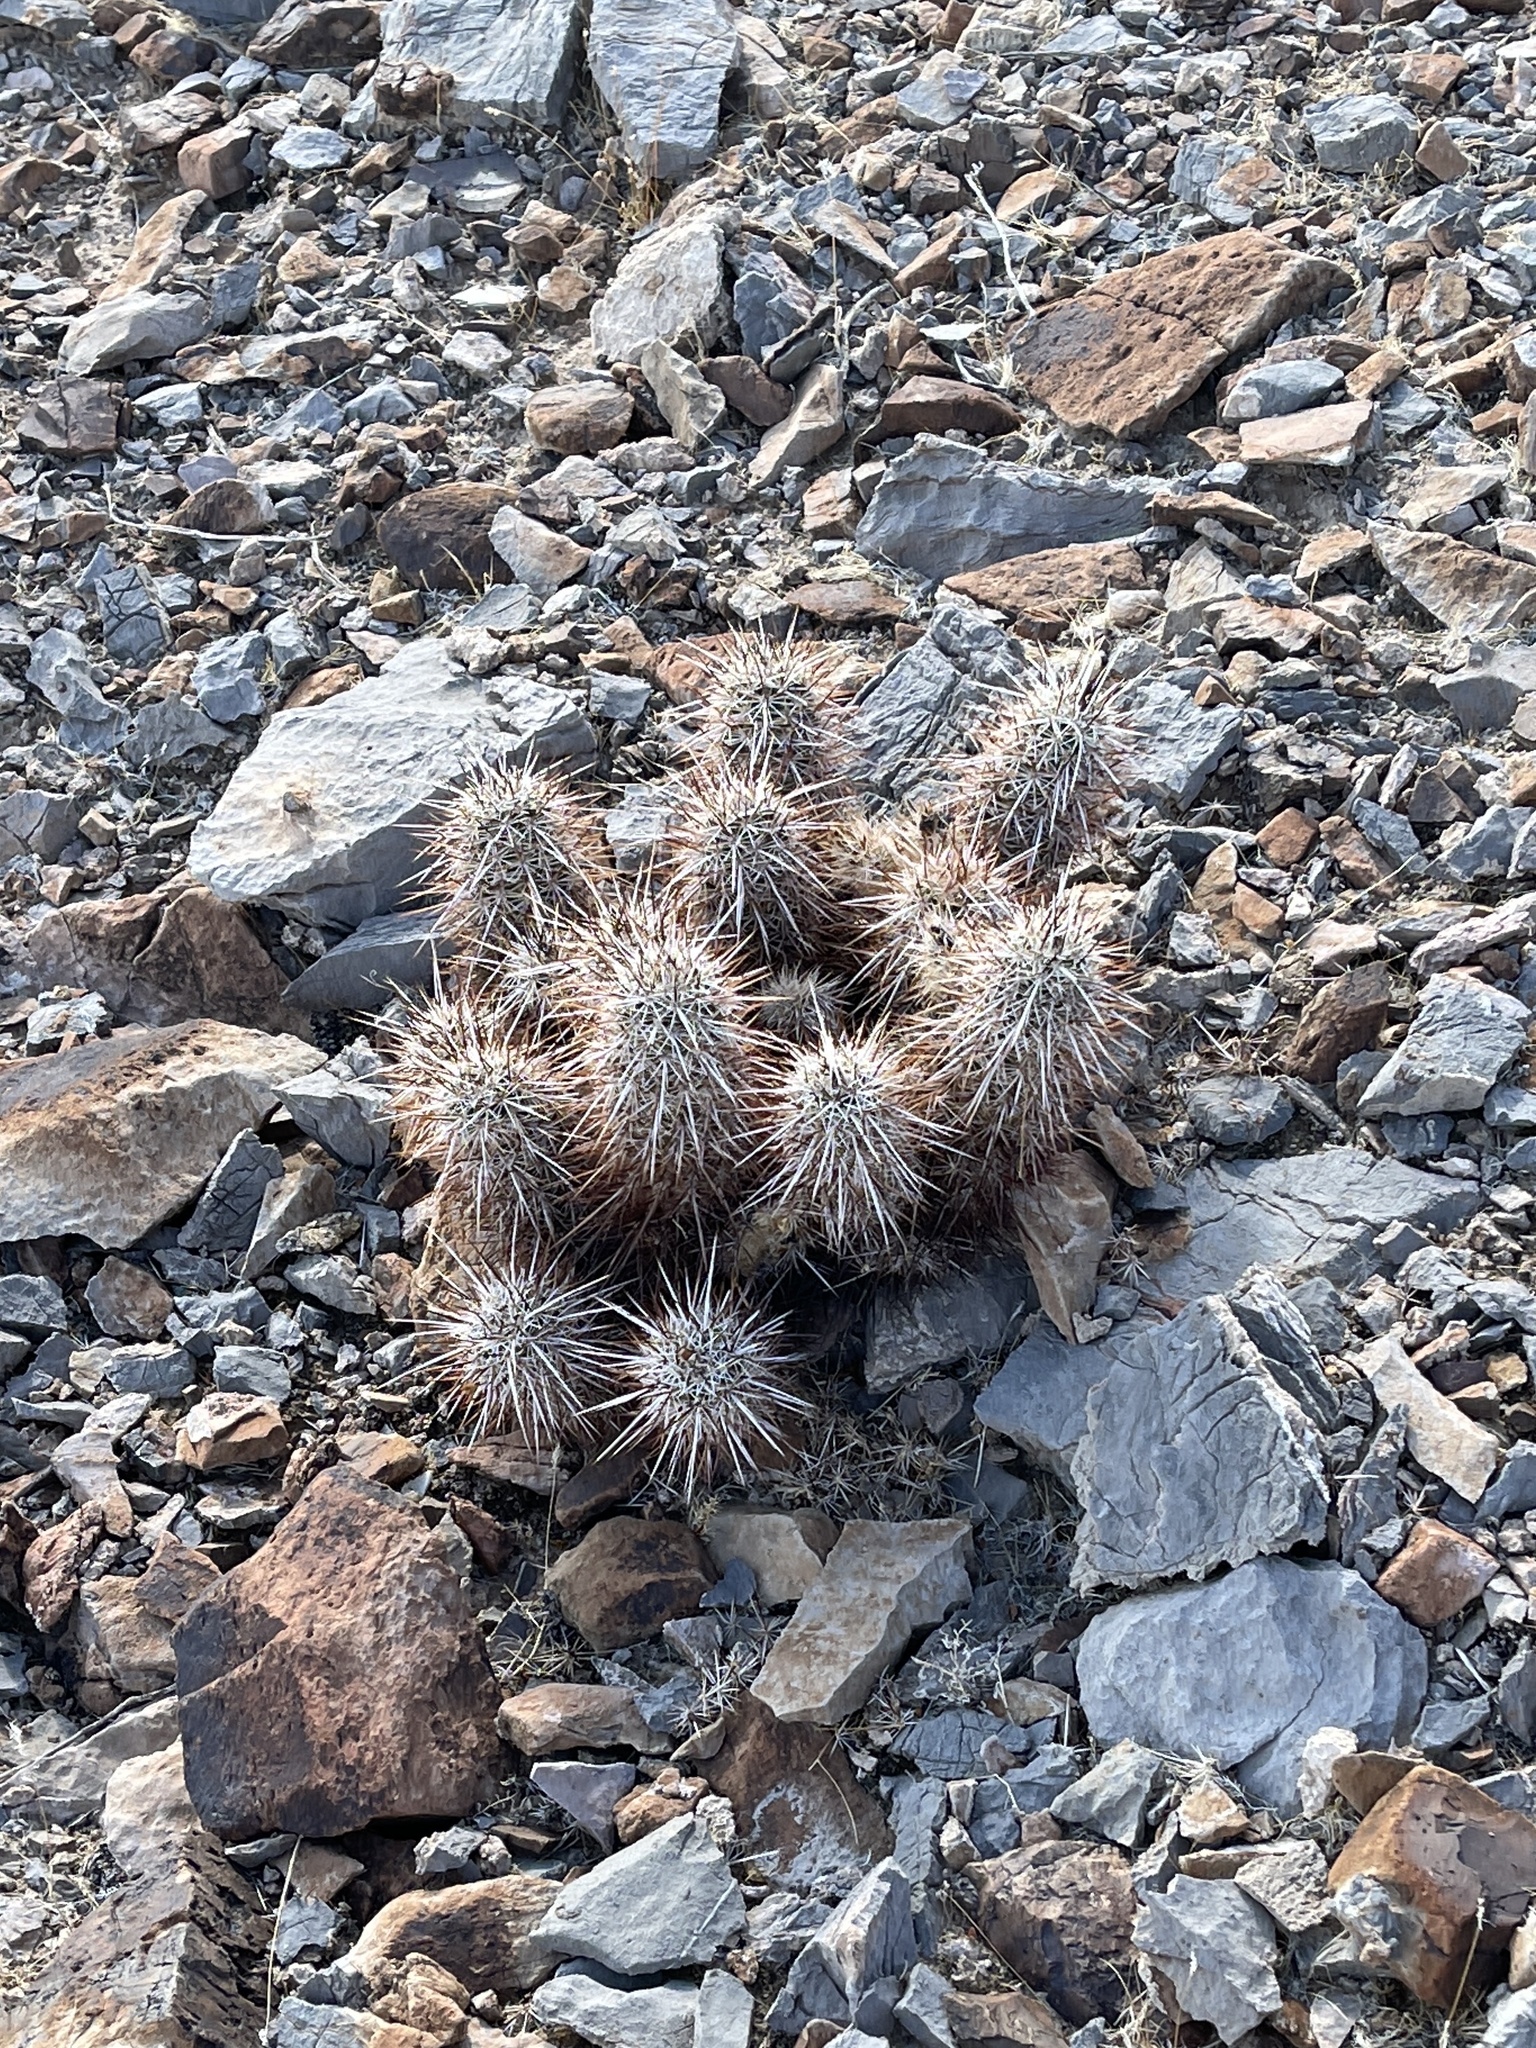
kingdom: Plantae
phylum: Tracheophyta
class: Magnoliopsida
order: Caryophyllales
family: Cactaceae
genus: Echinocereus
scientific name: Echinocereus engelmannii
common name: Engelmann's hedgehog cactus
